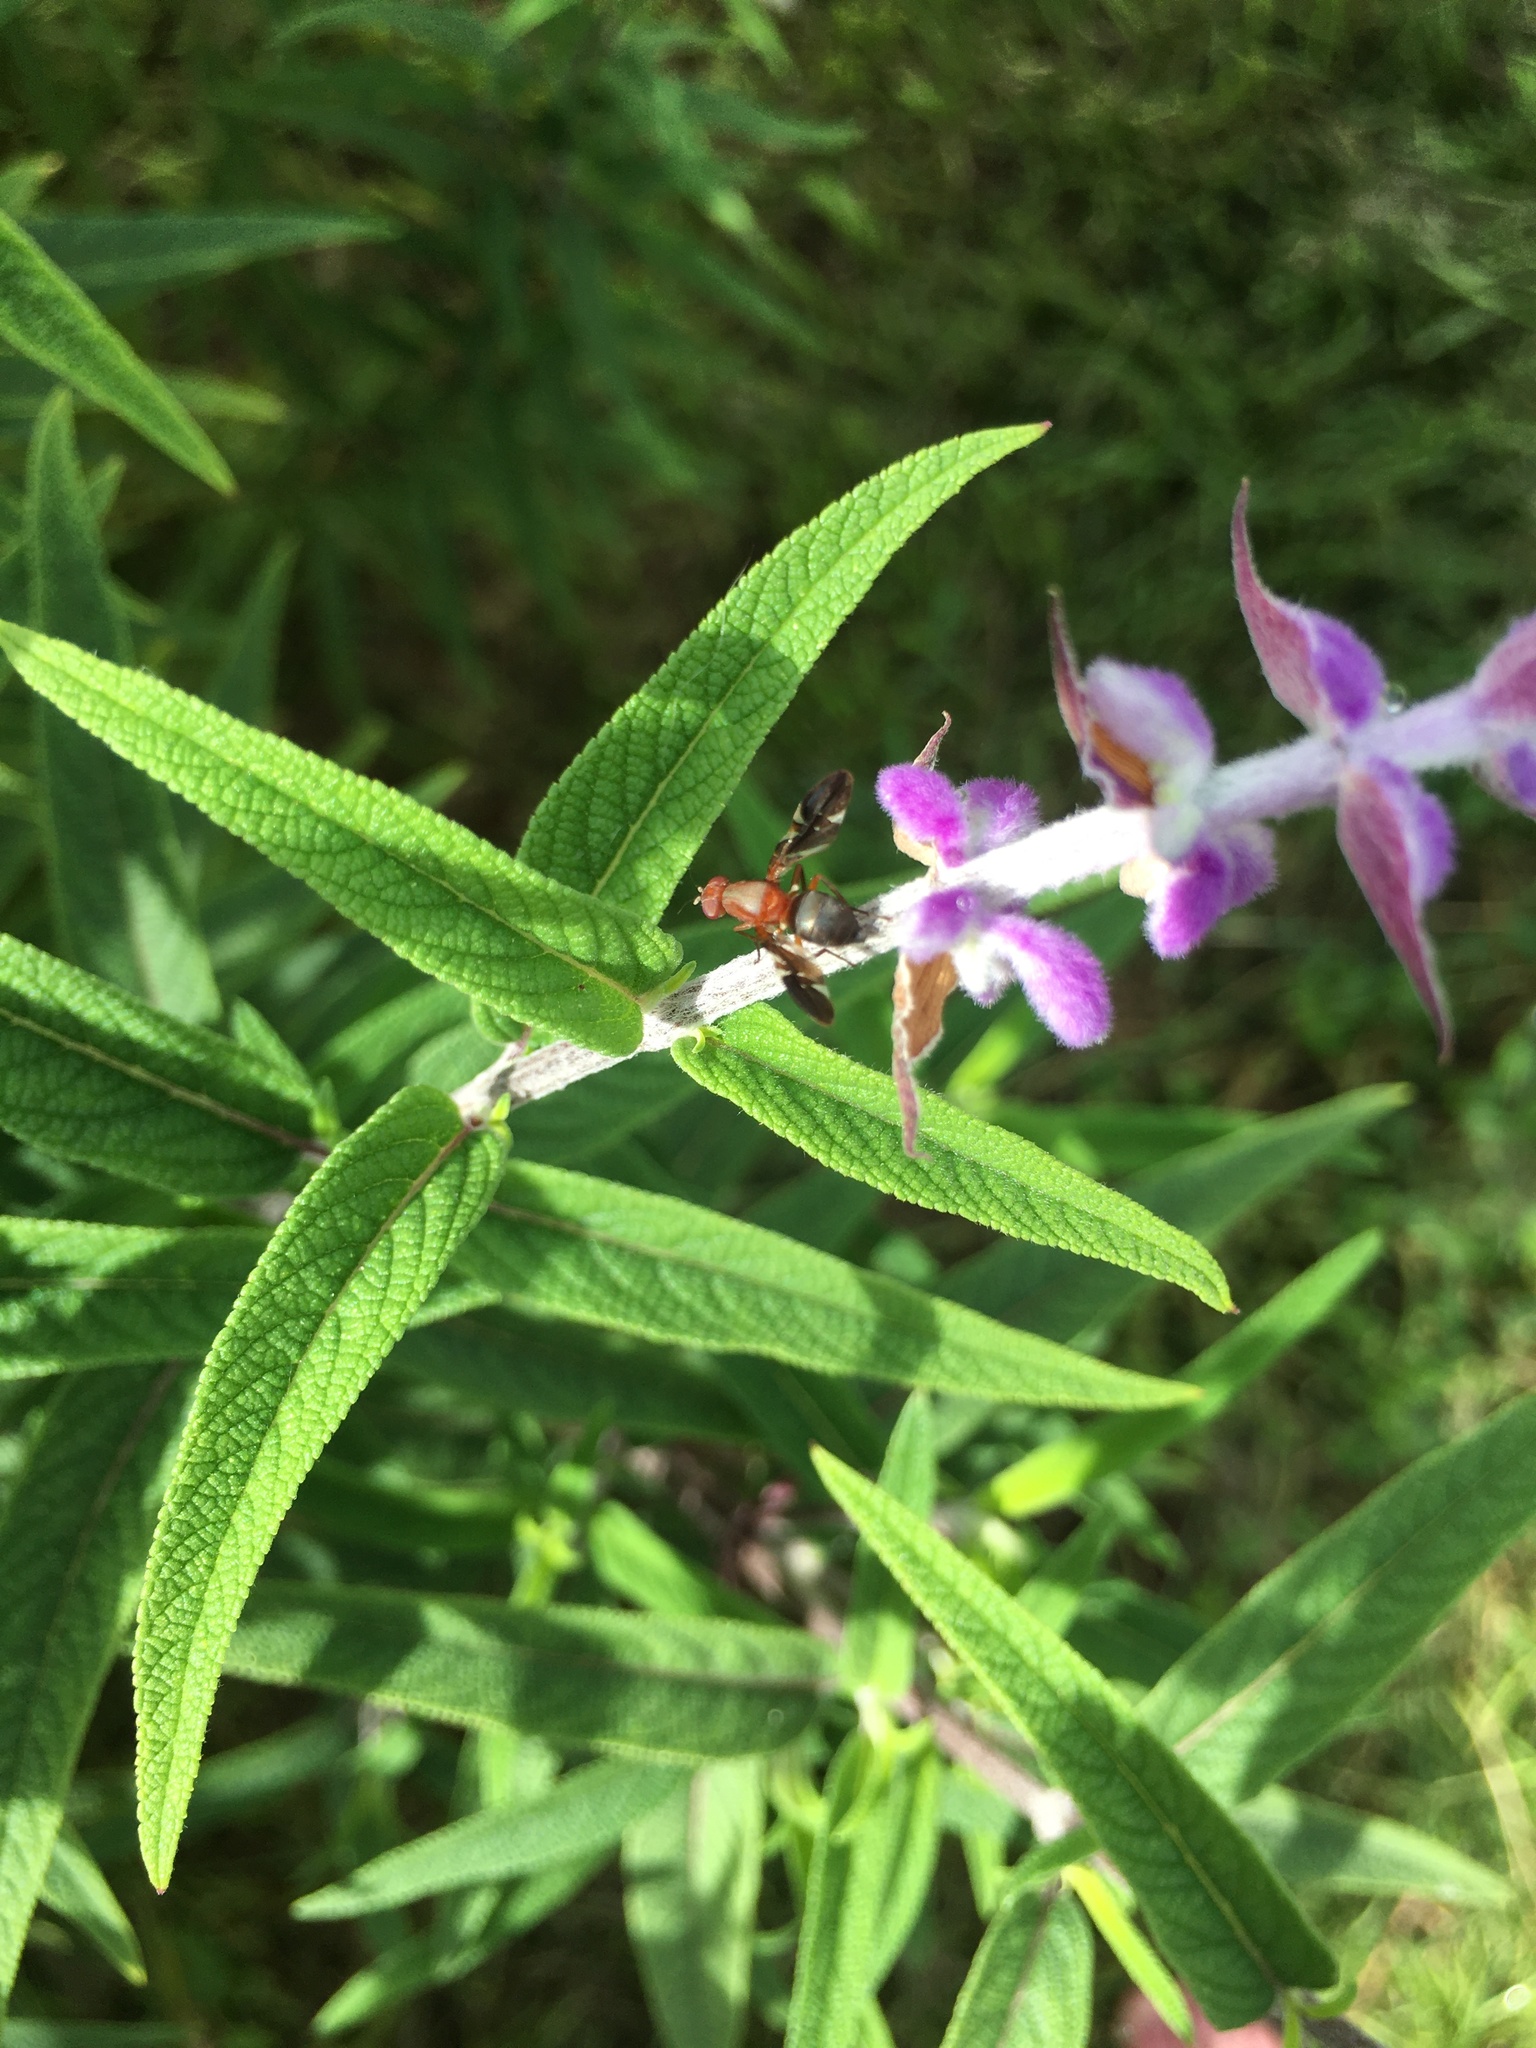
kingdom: Animalia
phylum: Arthropoda
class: Insecta
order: Diptera
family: Ulidiidae
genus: Delphinia
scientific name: Delphinia picta
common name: Common picture-winged fly
